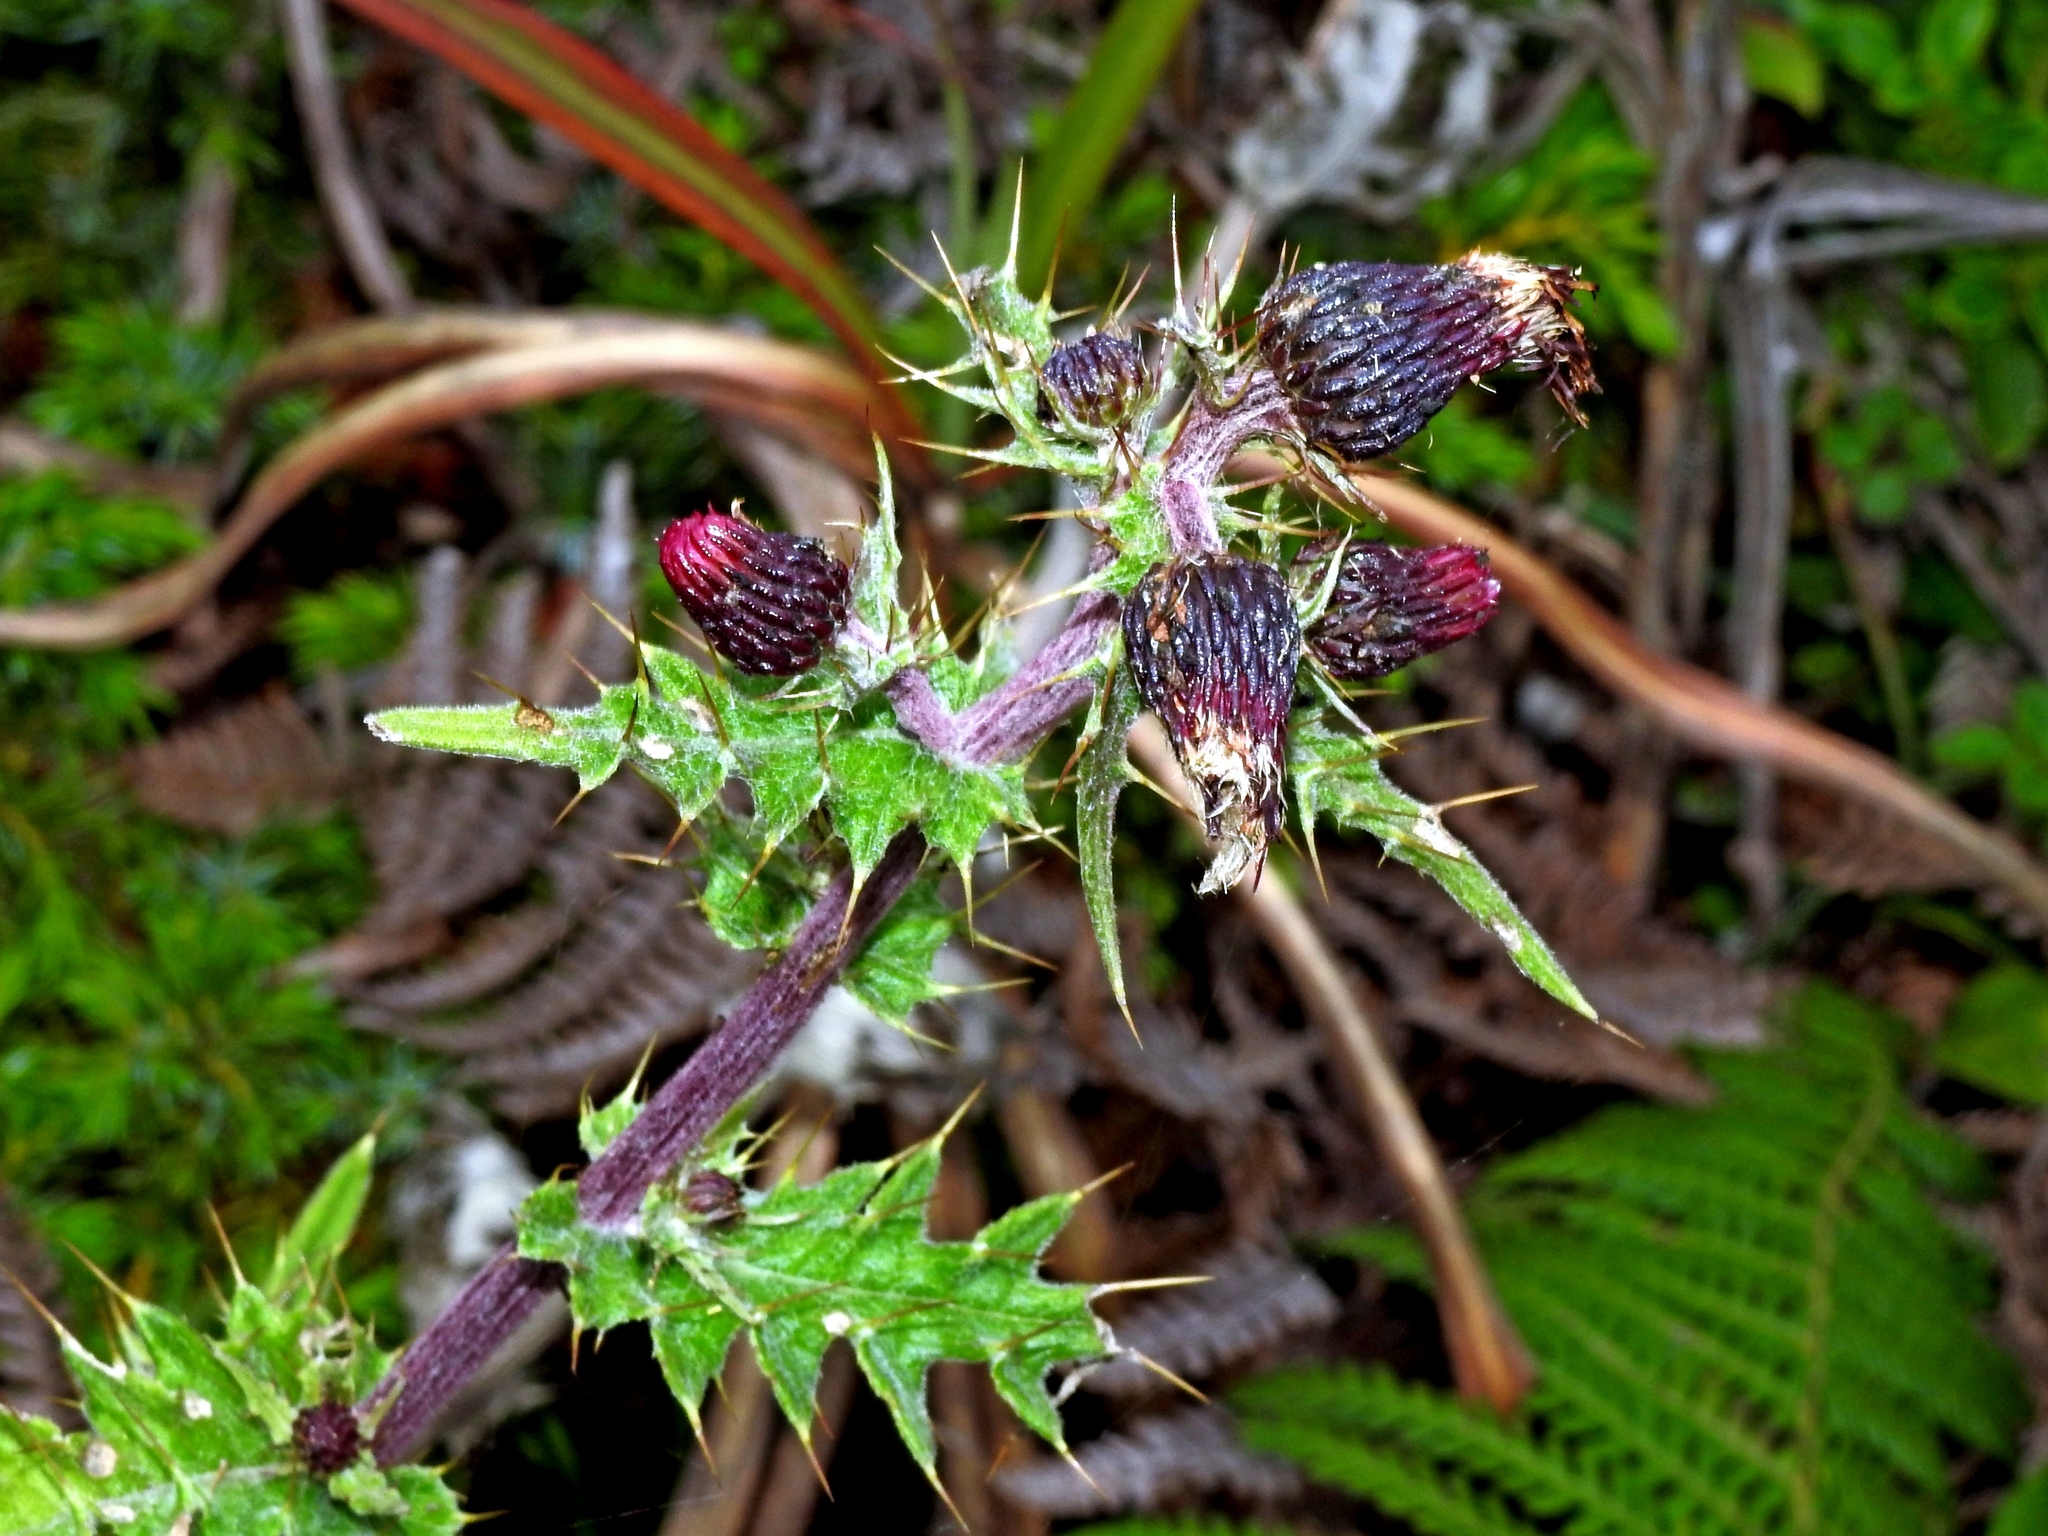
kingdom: Plantae
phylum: Tracheophyta
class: Magnoliopsida
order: Asterales
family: Asteraceae
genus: Cirsium
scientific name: Cirsium suzukii
